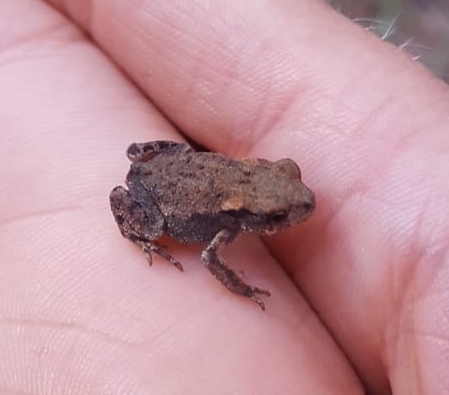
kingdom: Animalia
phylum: Chordata
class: Amphibia
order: Anura
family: Bufonidae
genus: Bufo
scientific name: Bufo spinosus
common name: Western common toad
